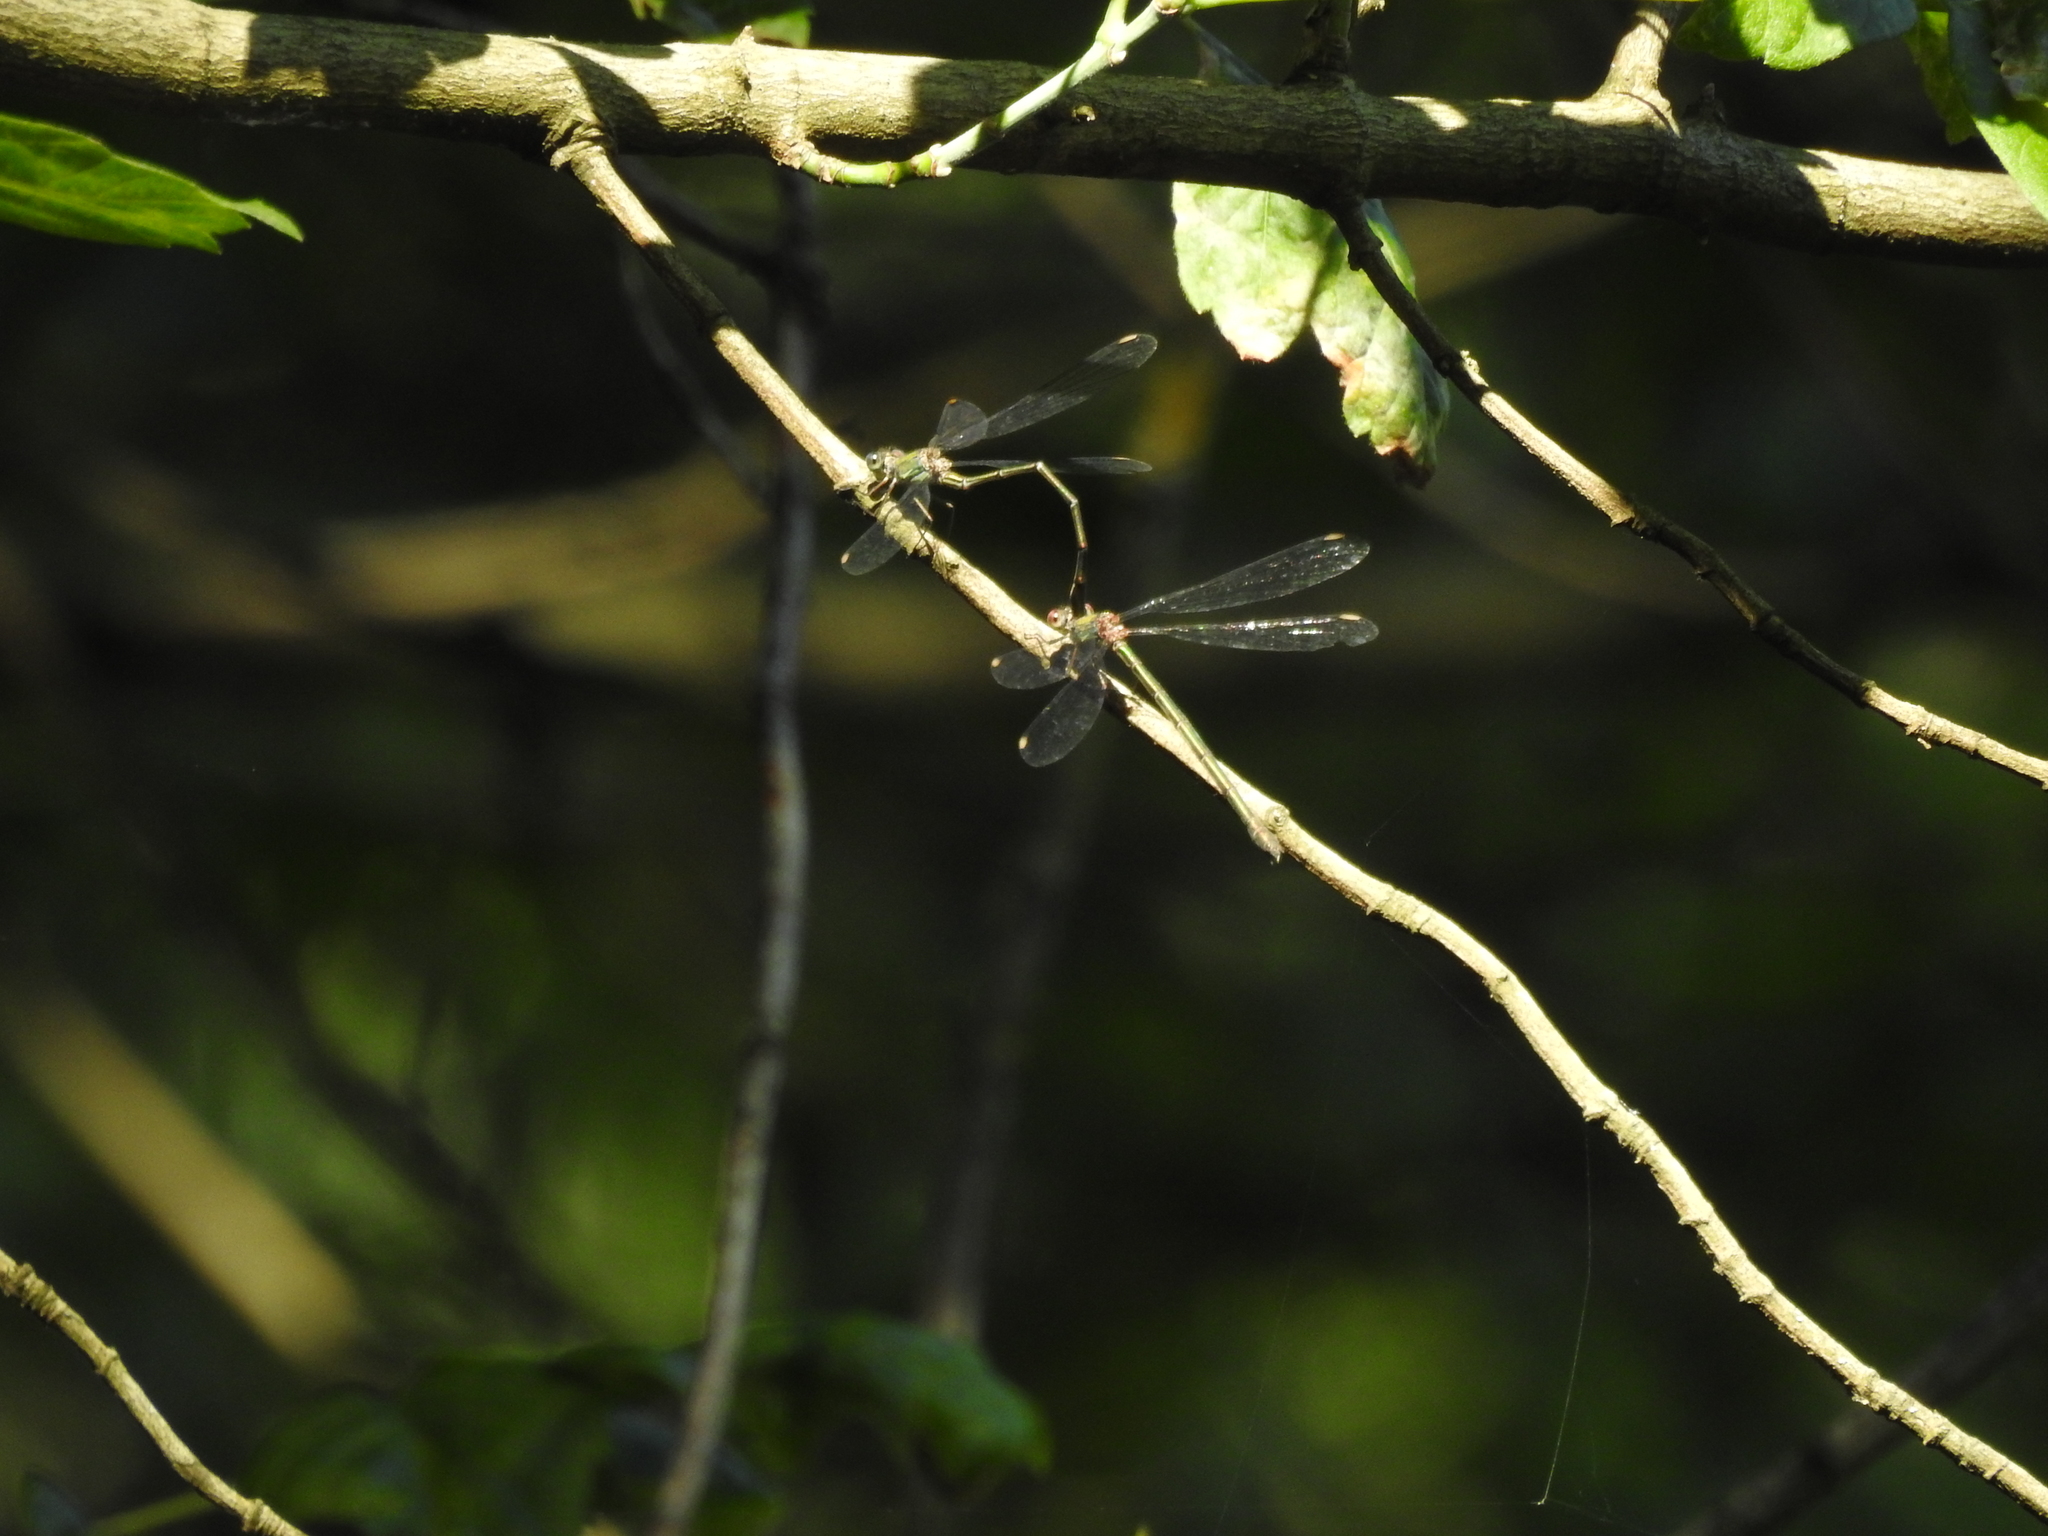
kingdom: Animalia
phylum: Arthropoda
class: Insecta
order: Odonata
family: Lestidae
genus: Chalcolestes
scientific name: Chalcolestes viridis
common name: Green emerald damselfly
